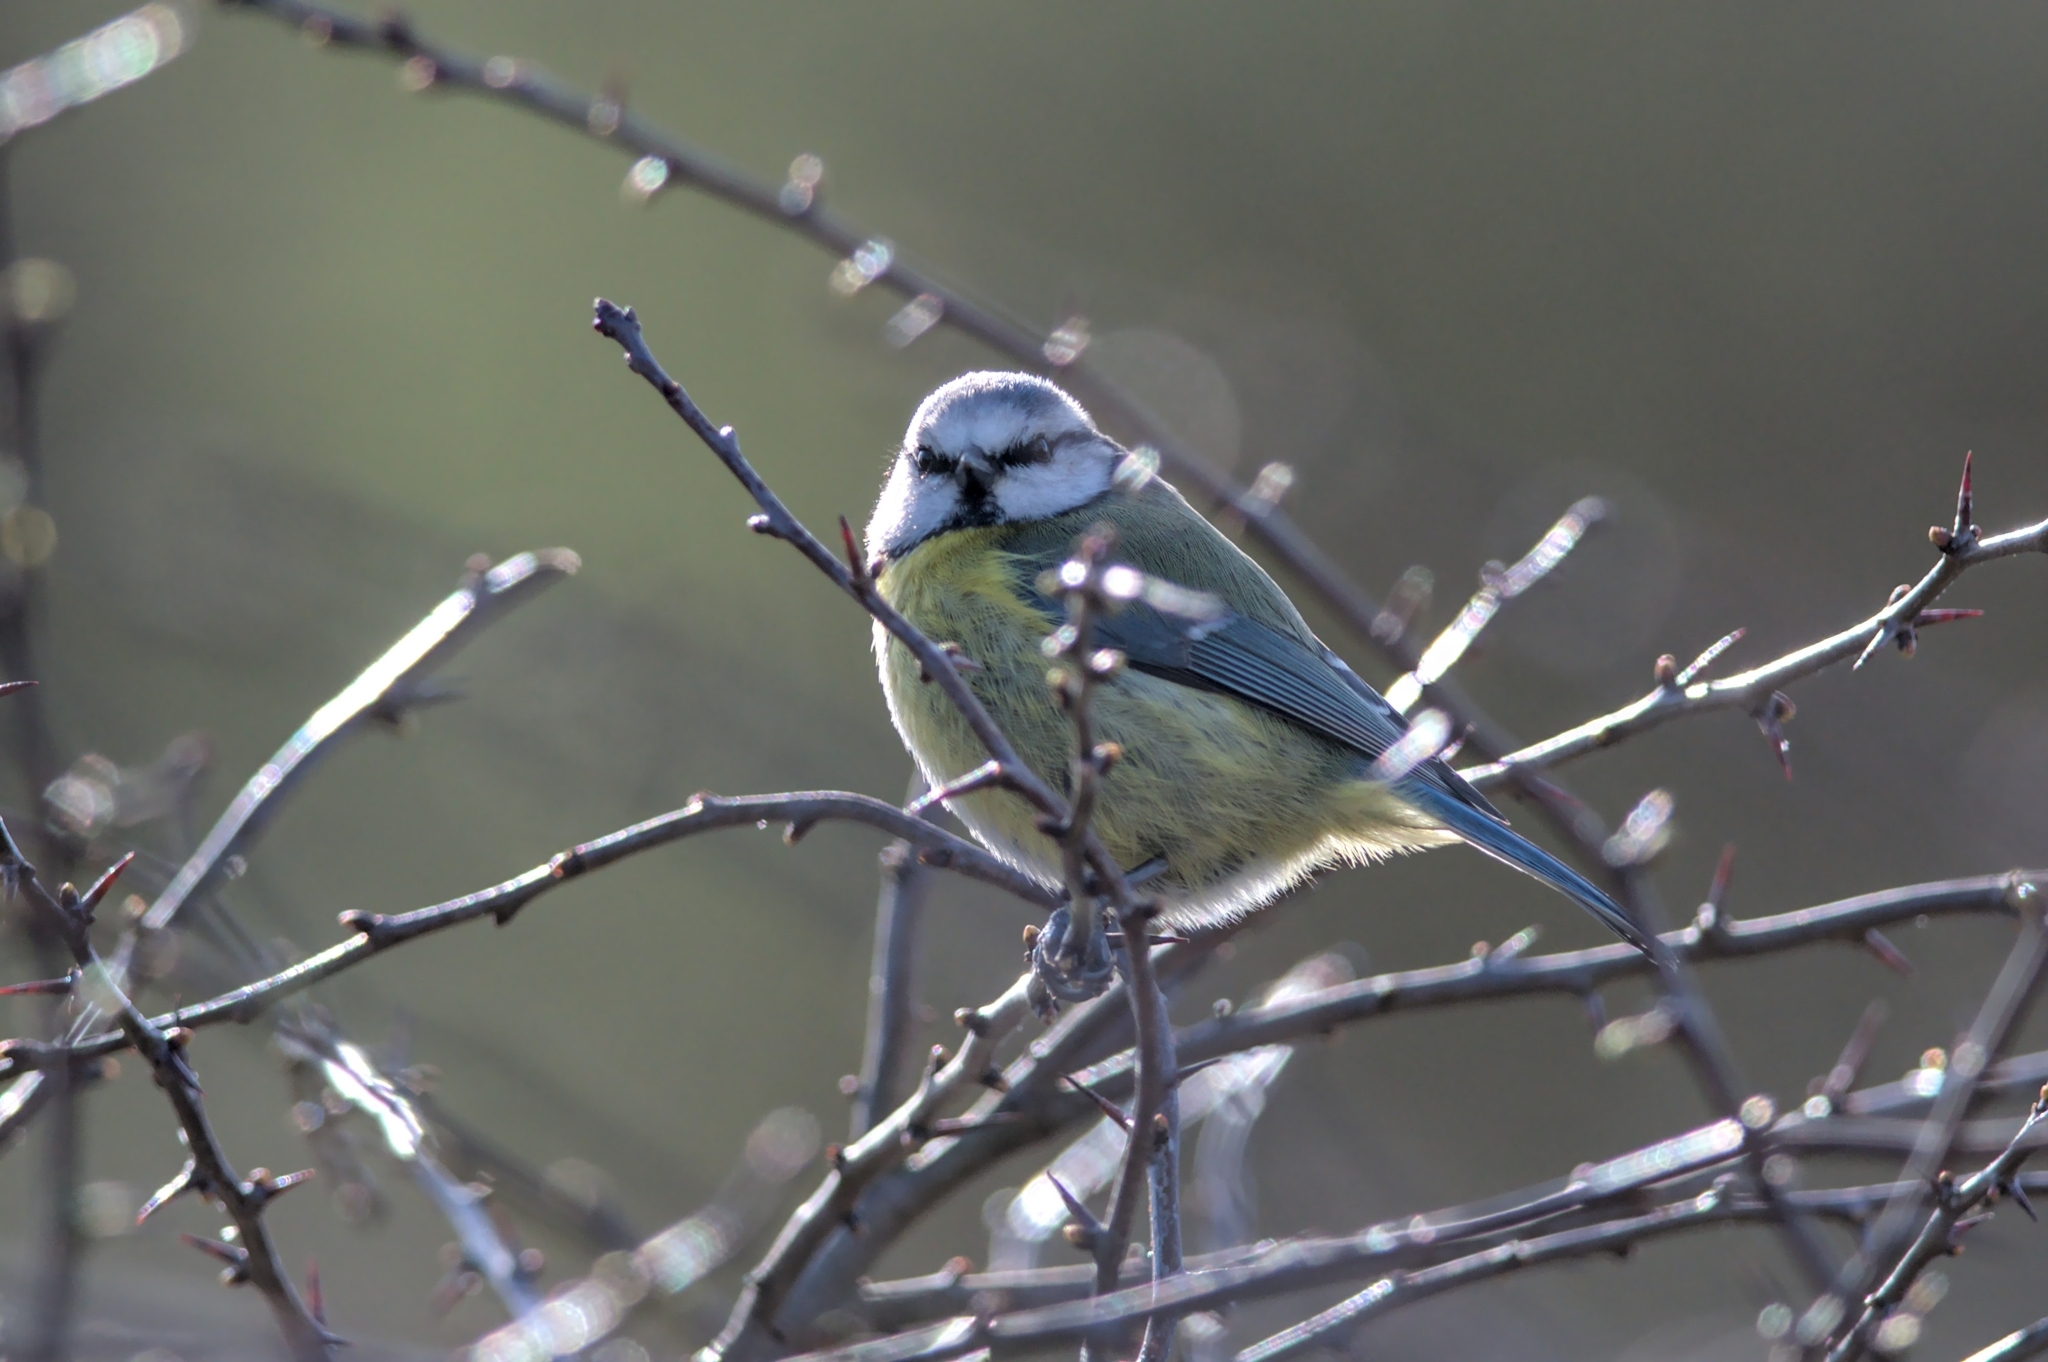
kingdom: Animalia
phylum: Chordata
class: Aves
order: Passeriformes
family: Paridae
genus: Cyanistes
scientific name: Cyanistes caeruleus
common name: Eurasian blue tit
